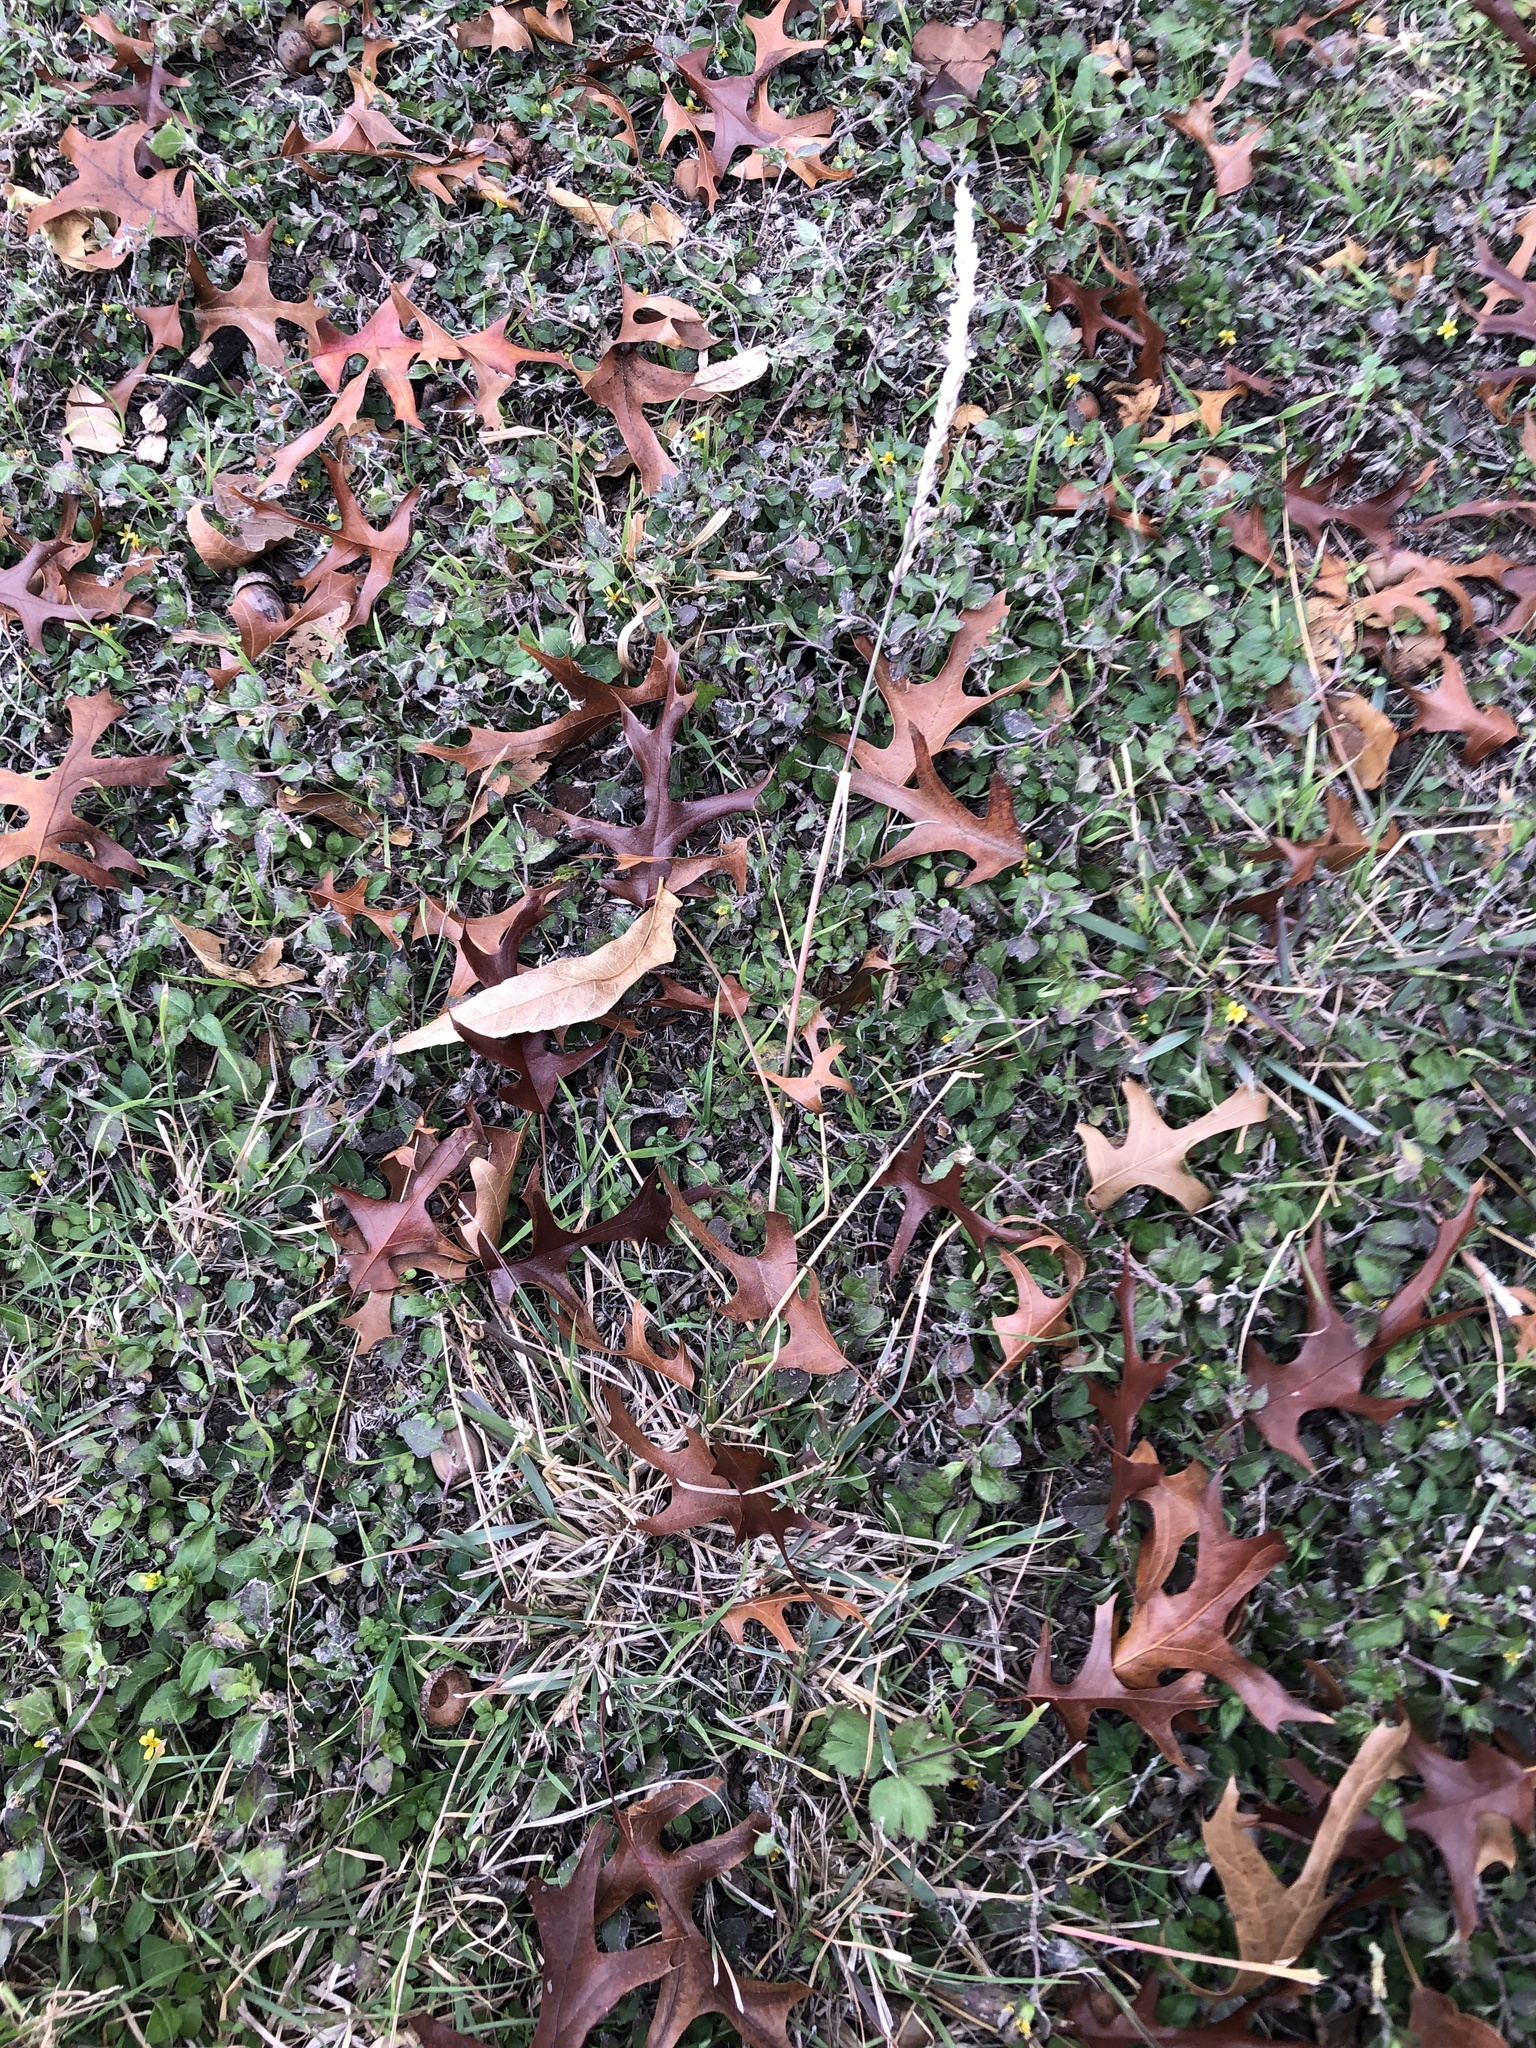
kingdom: Plantae
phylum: Tracheophyta
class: Liliopsida
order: Poales
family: Poaceae
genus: Tridens
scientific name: Tridens albescens
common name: White tridens
